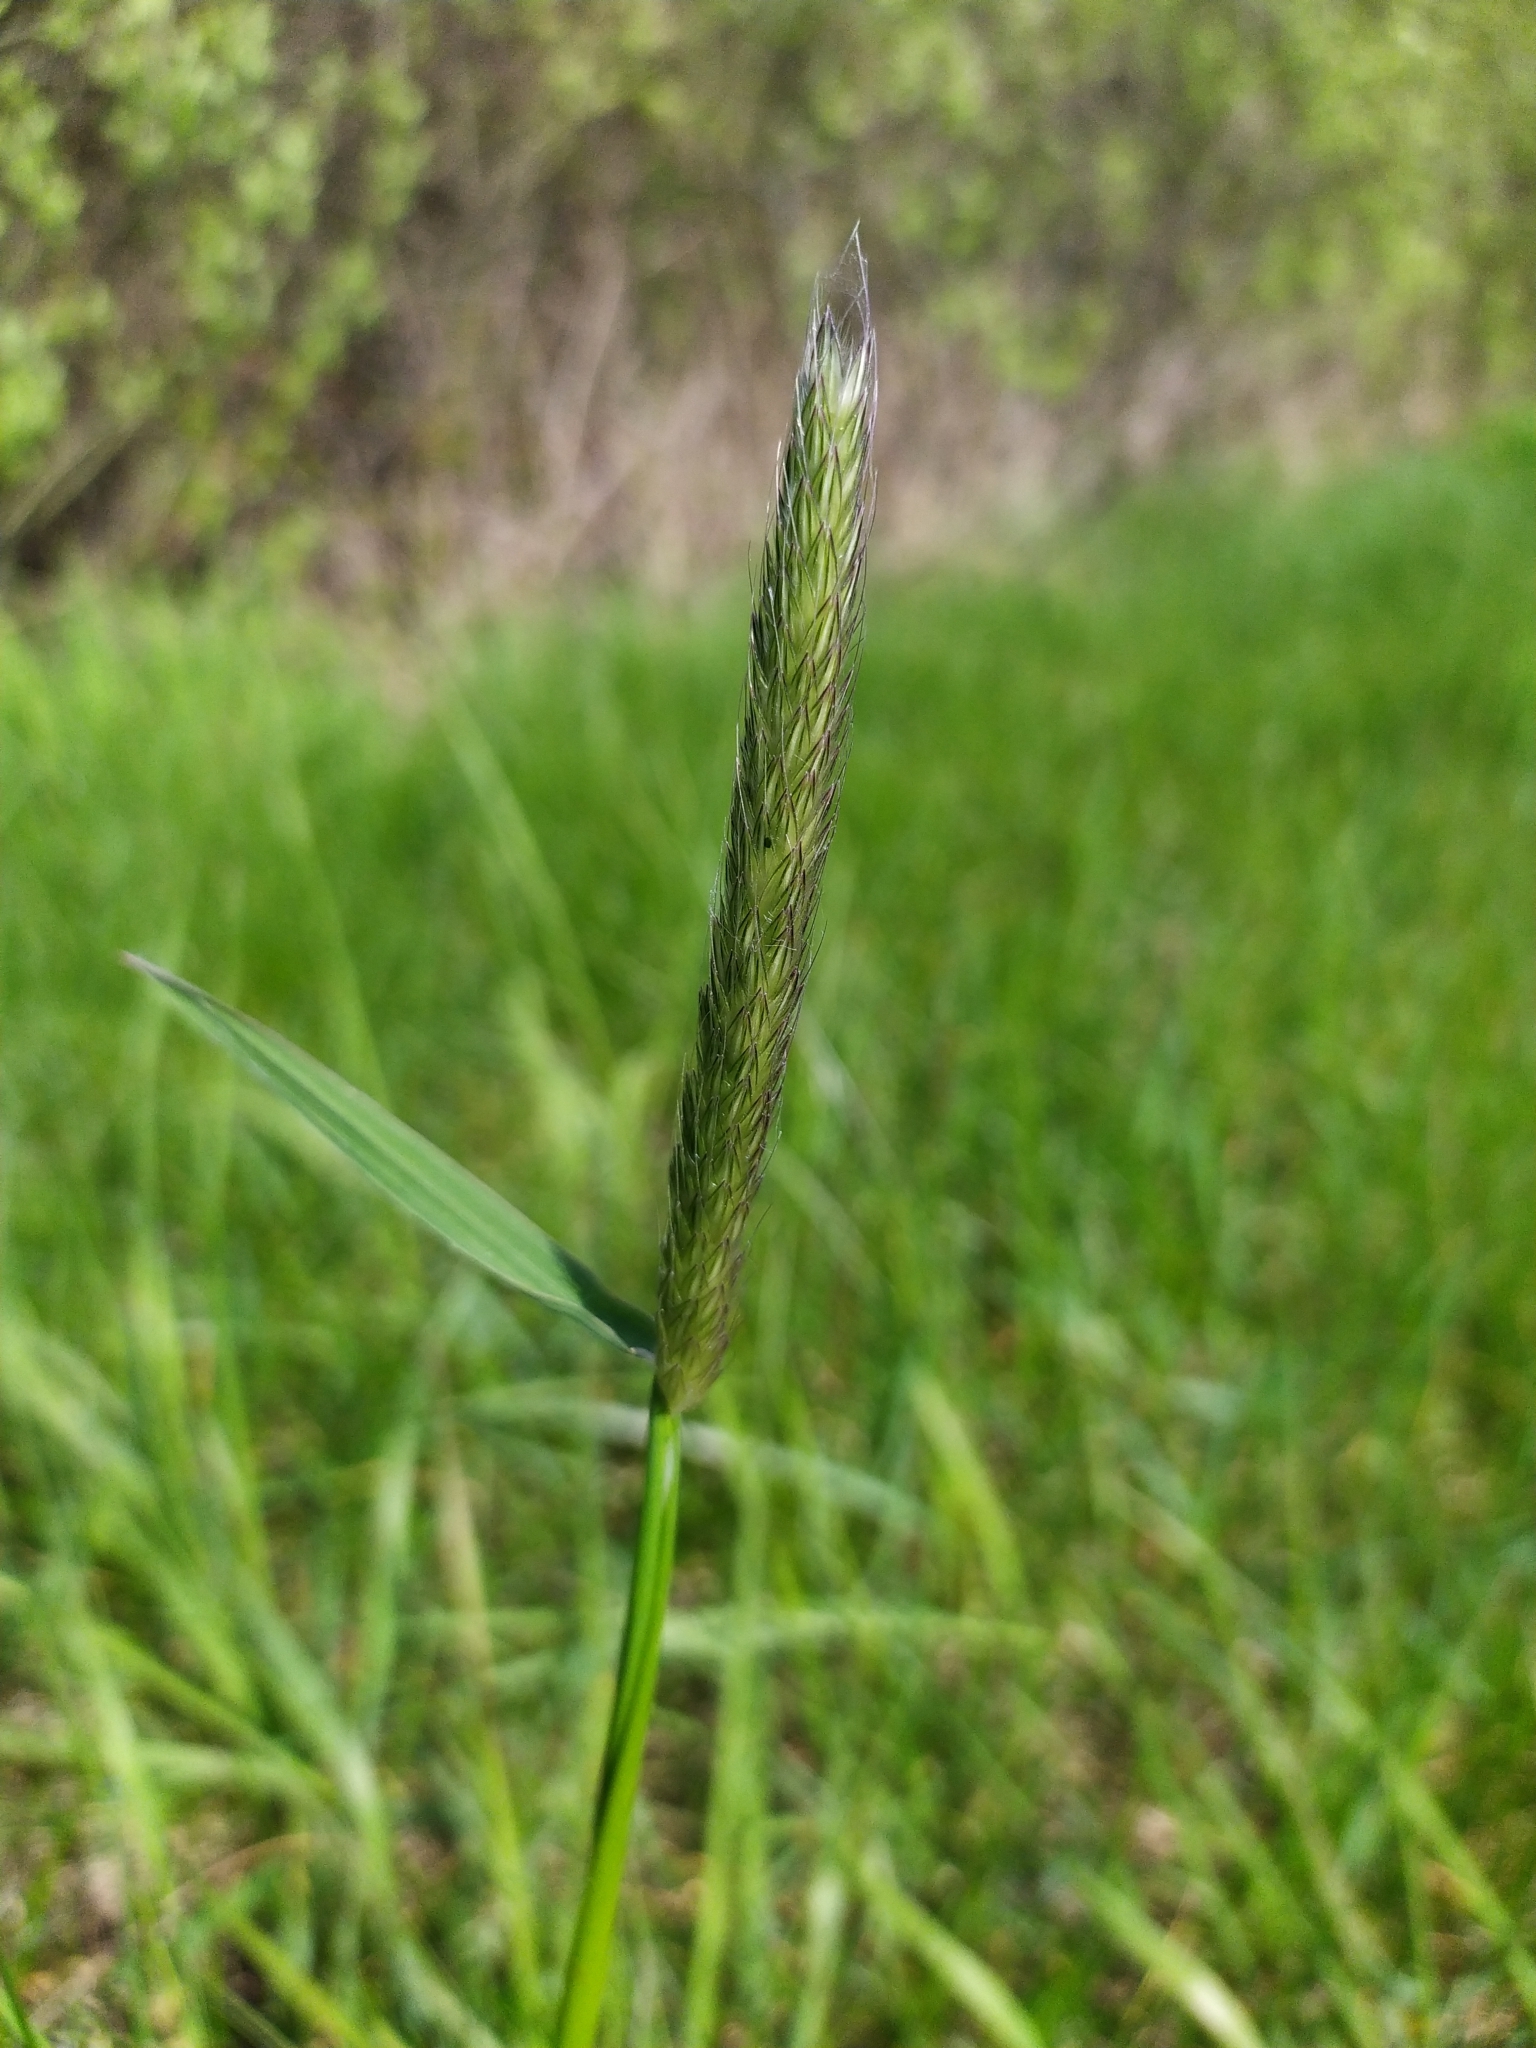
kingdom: Plantae
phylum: Tracheophyta
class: Liliopsida
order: Poales
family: Poaceae
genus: Alopecurus
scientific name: Alopecurus pratensis
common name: Meadow foxtail
